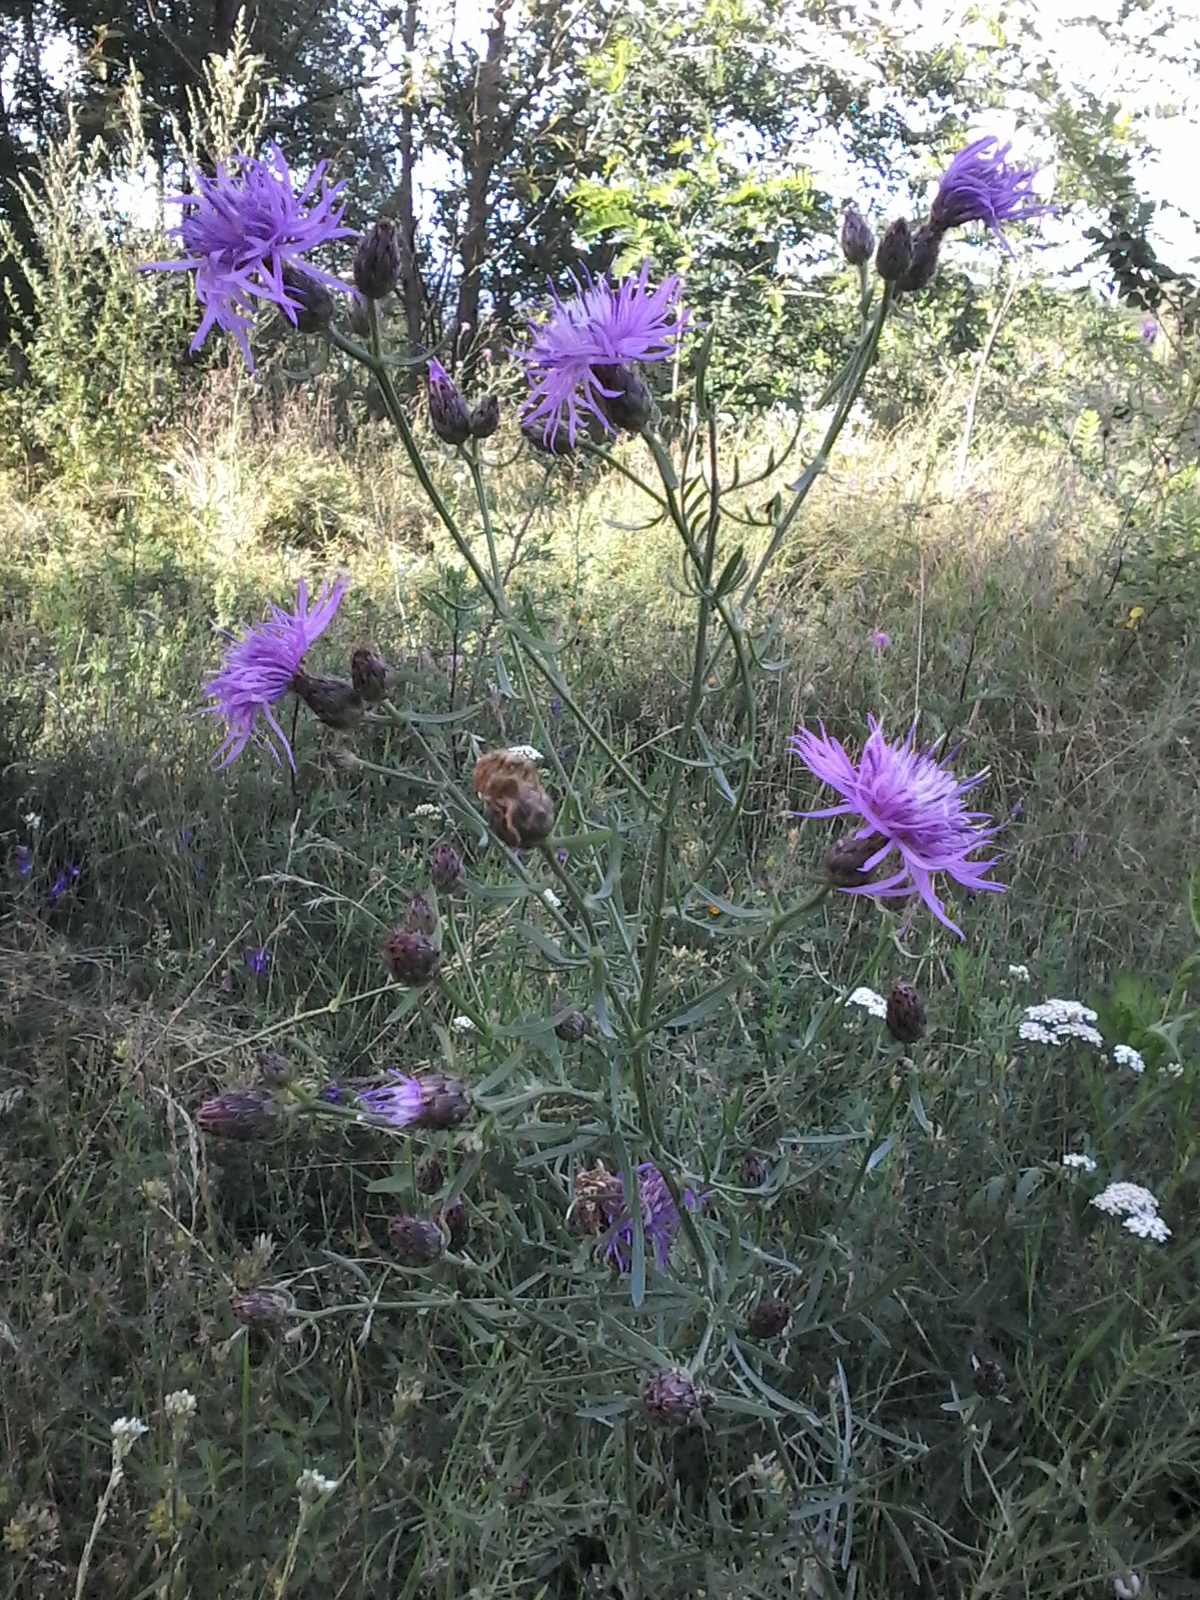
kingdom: Plantae
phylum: Tracheophyta
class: Magnoliopsida
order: Asterales
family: Asteraceae
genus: Centaurea
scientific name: Centaurea stoebe
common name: Spotted knapweed
